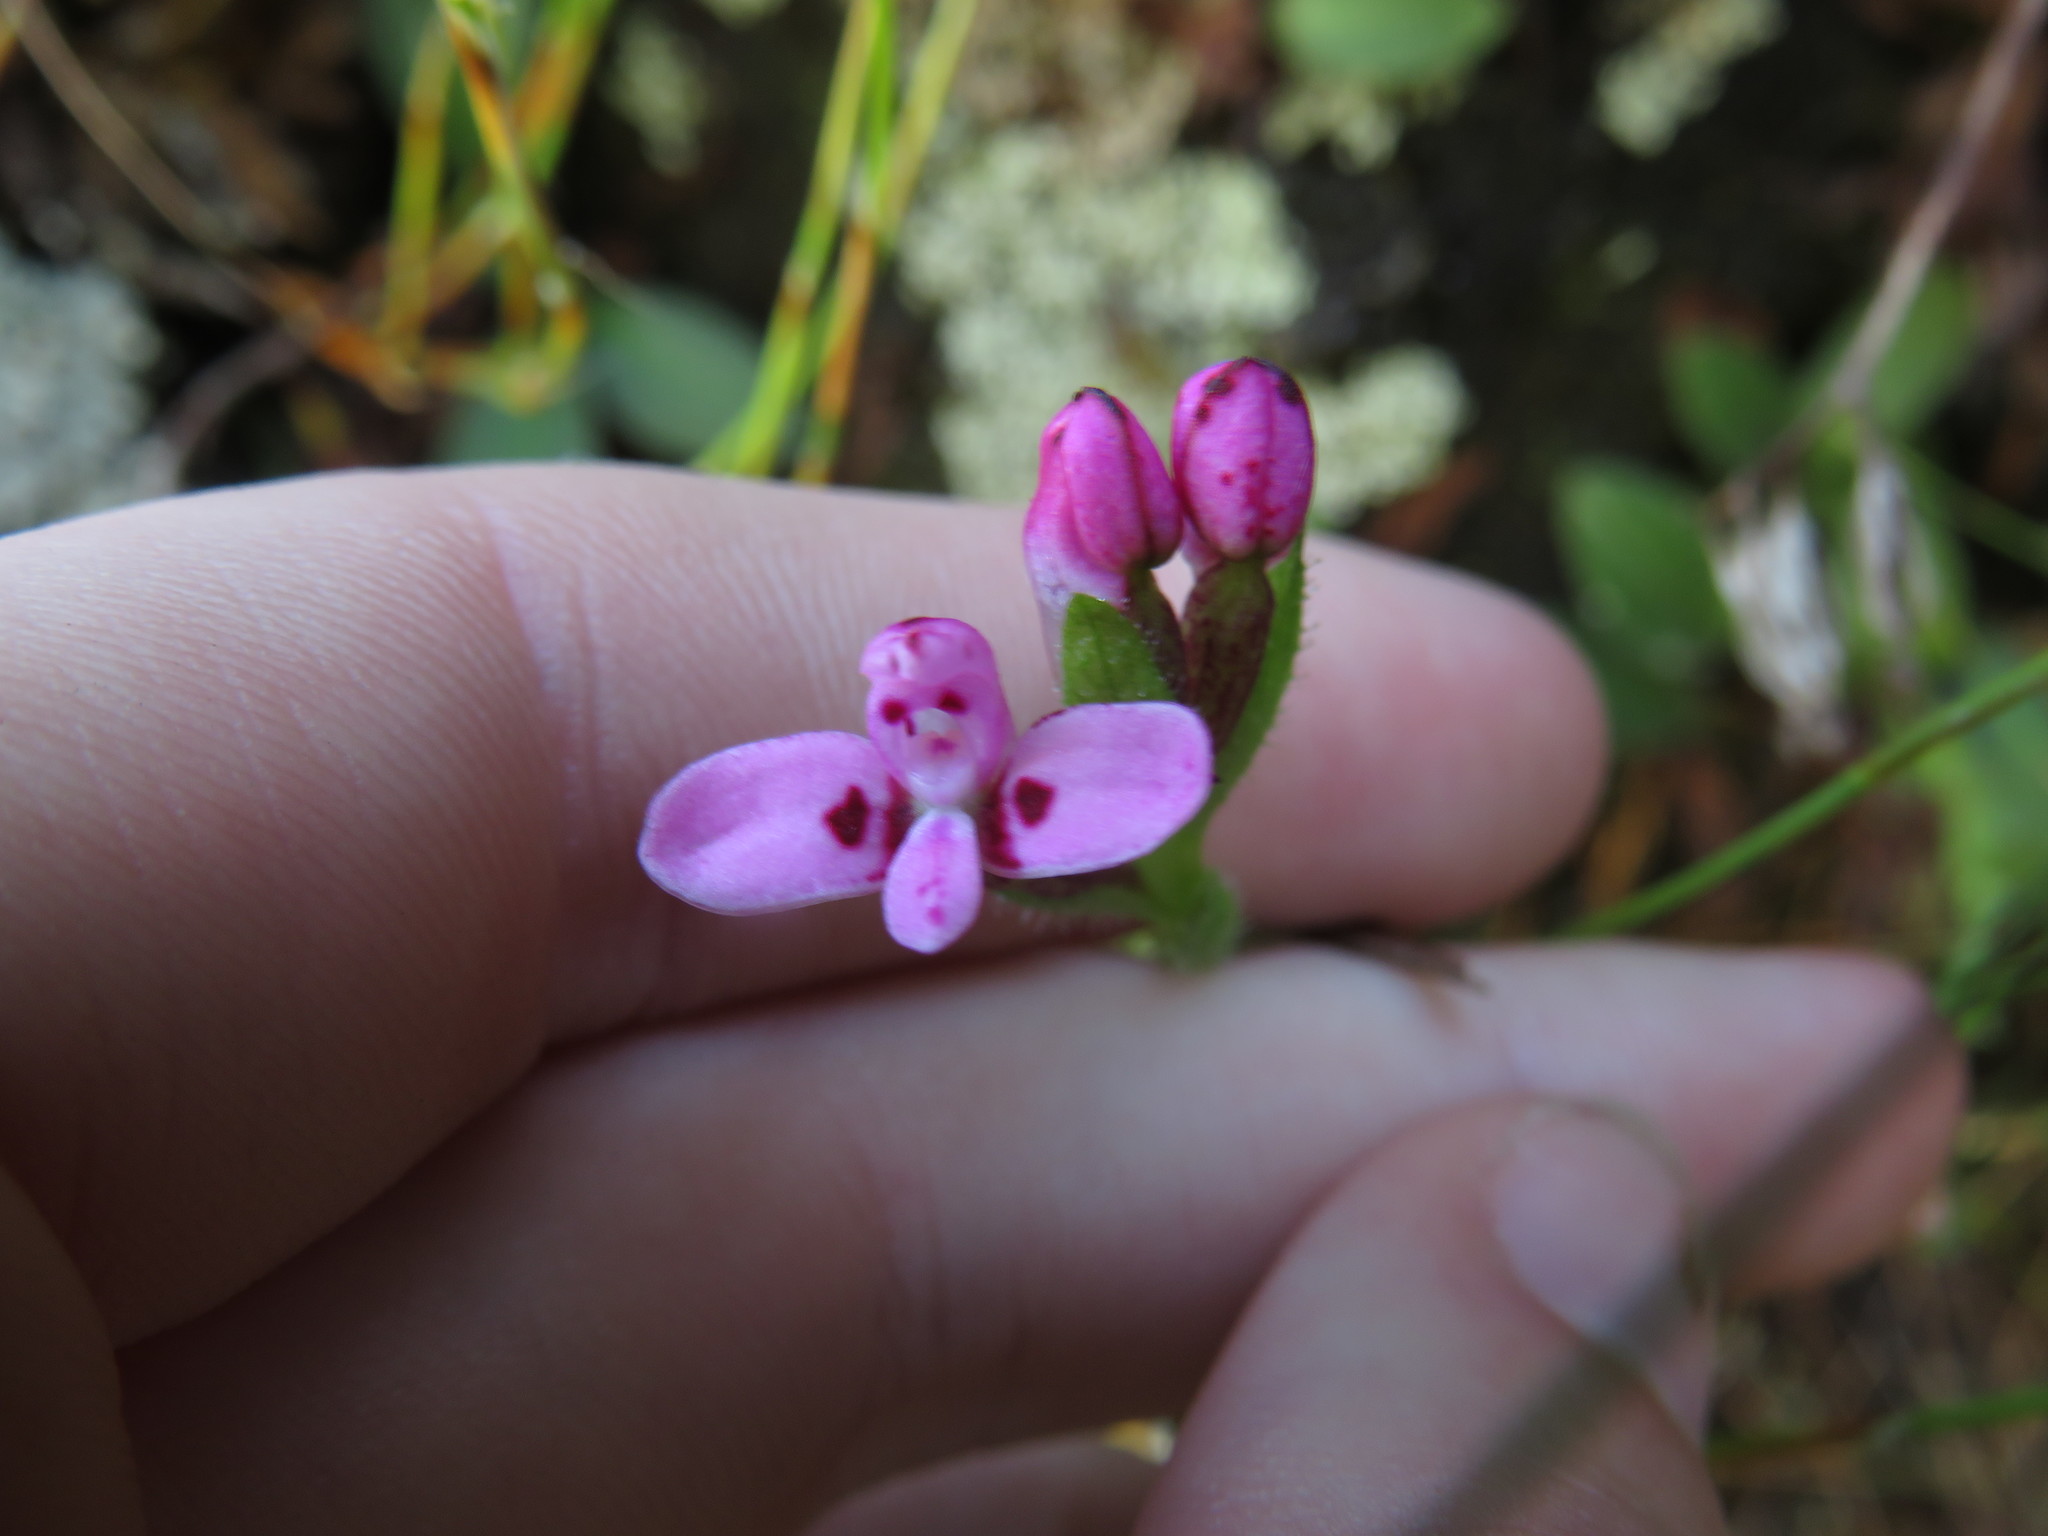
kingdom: Plantae
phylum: Tracheophyta
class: Liliopsida
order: Asparagales
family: Orchidaceae
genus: Disa
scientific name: Disa glandulosa
